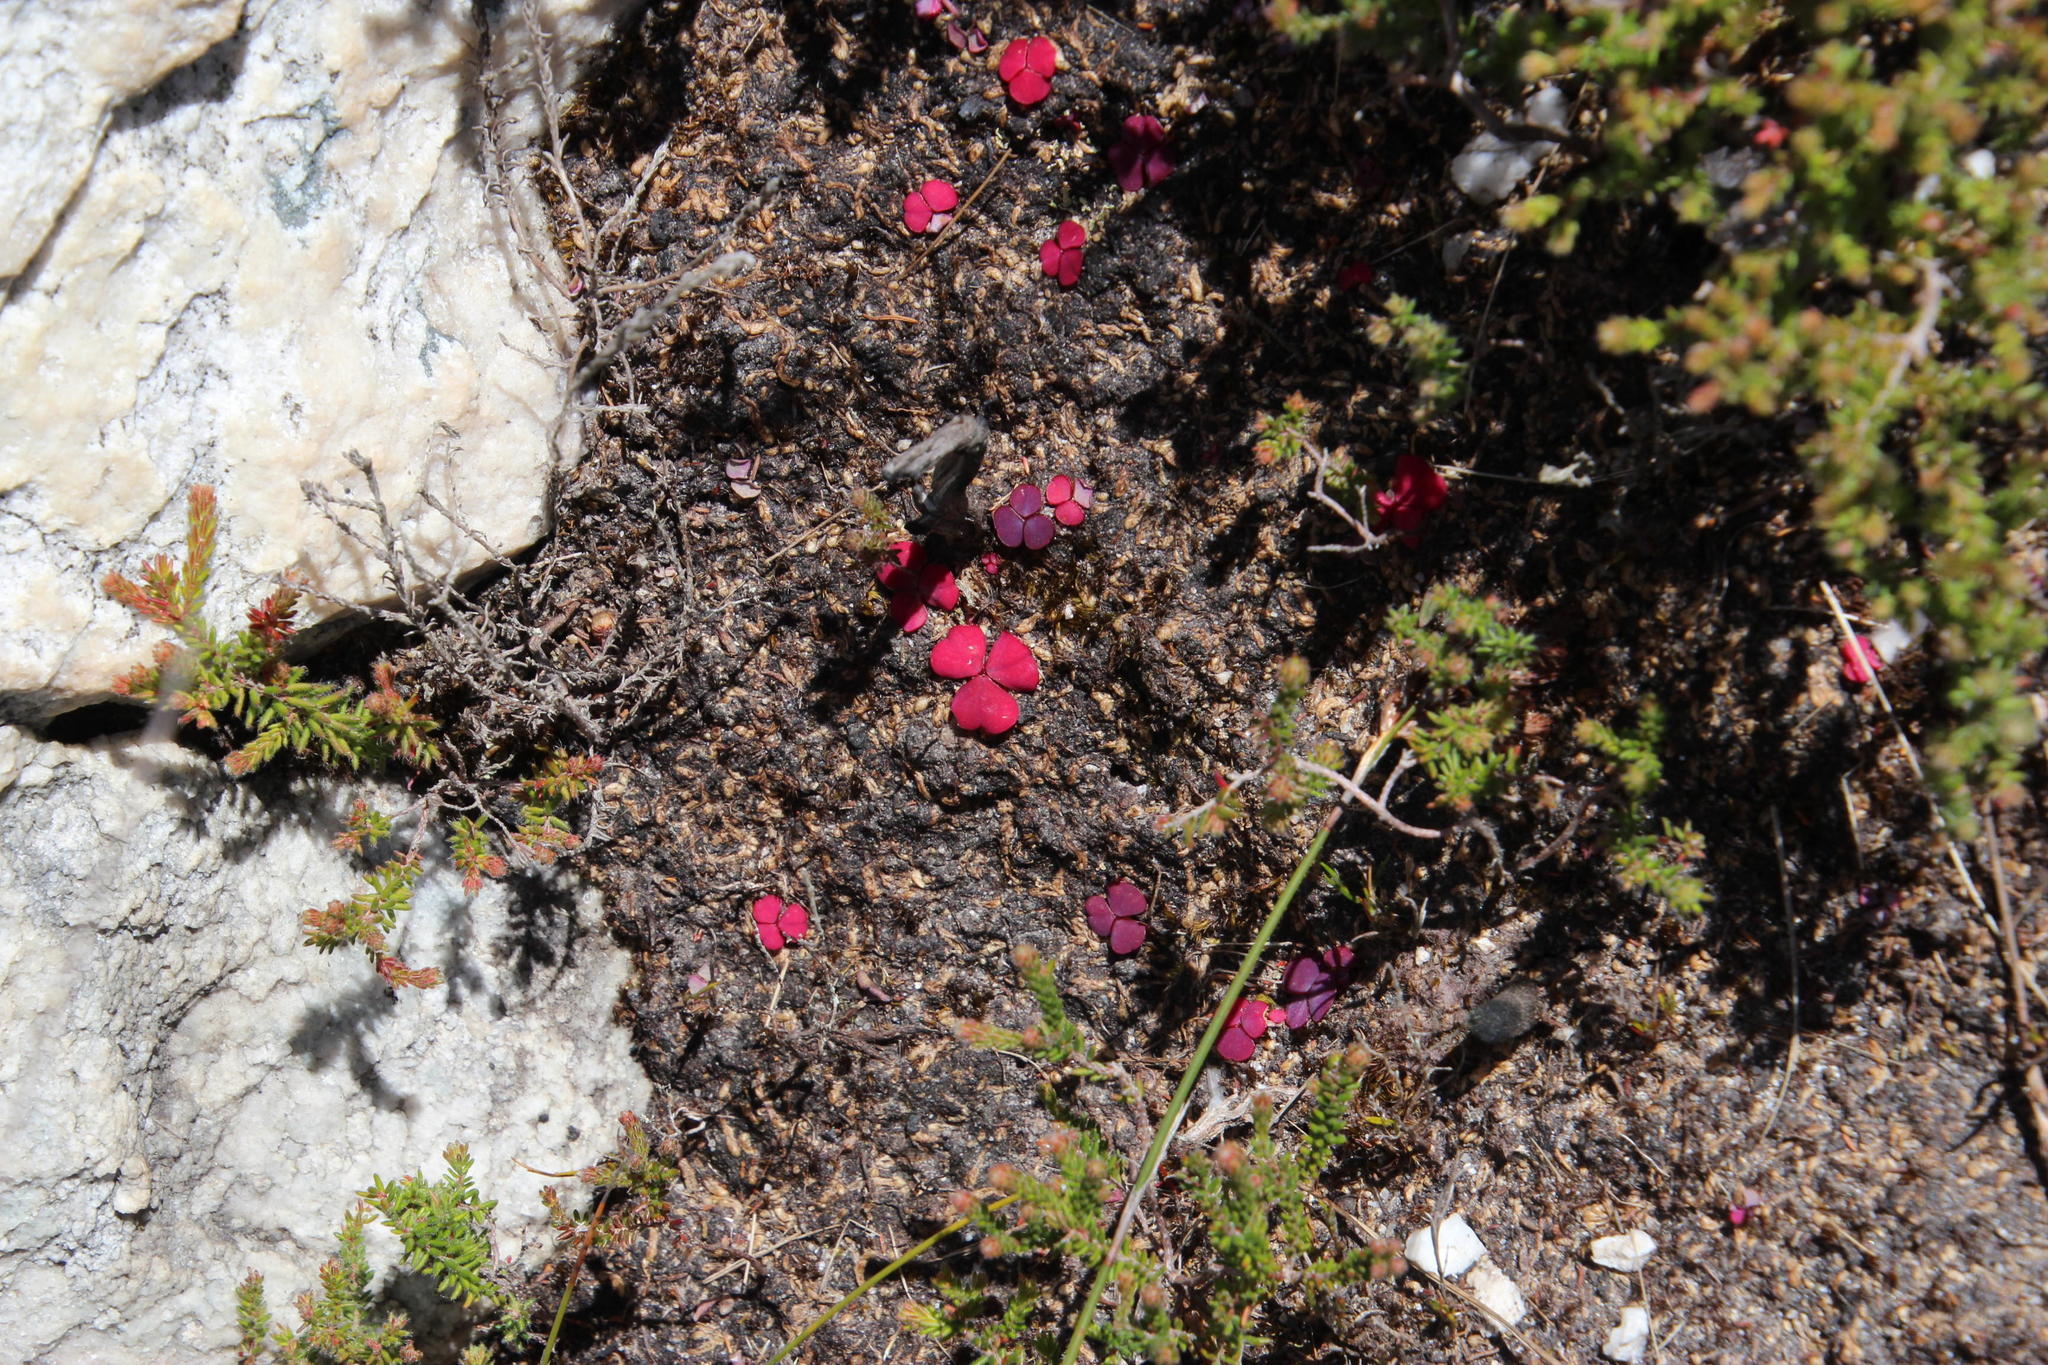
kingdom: Plantae
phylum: Tracheophyta
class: Magnoliopsida
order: Oxalidales
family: Oxalidaceae
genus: Oxalis
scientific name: Oxalis commutata
